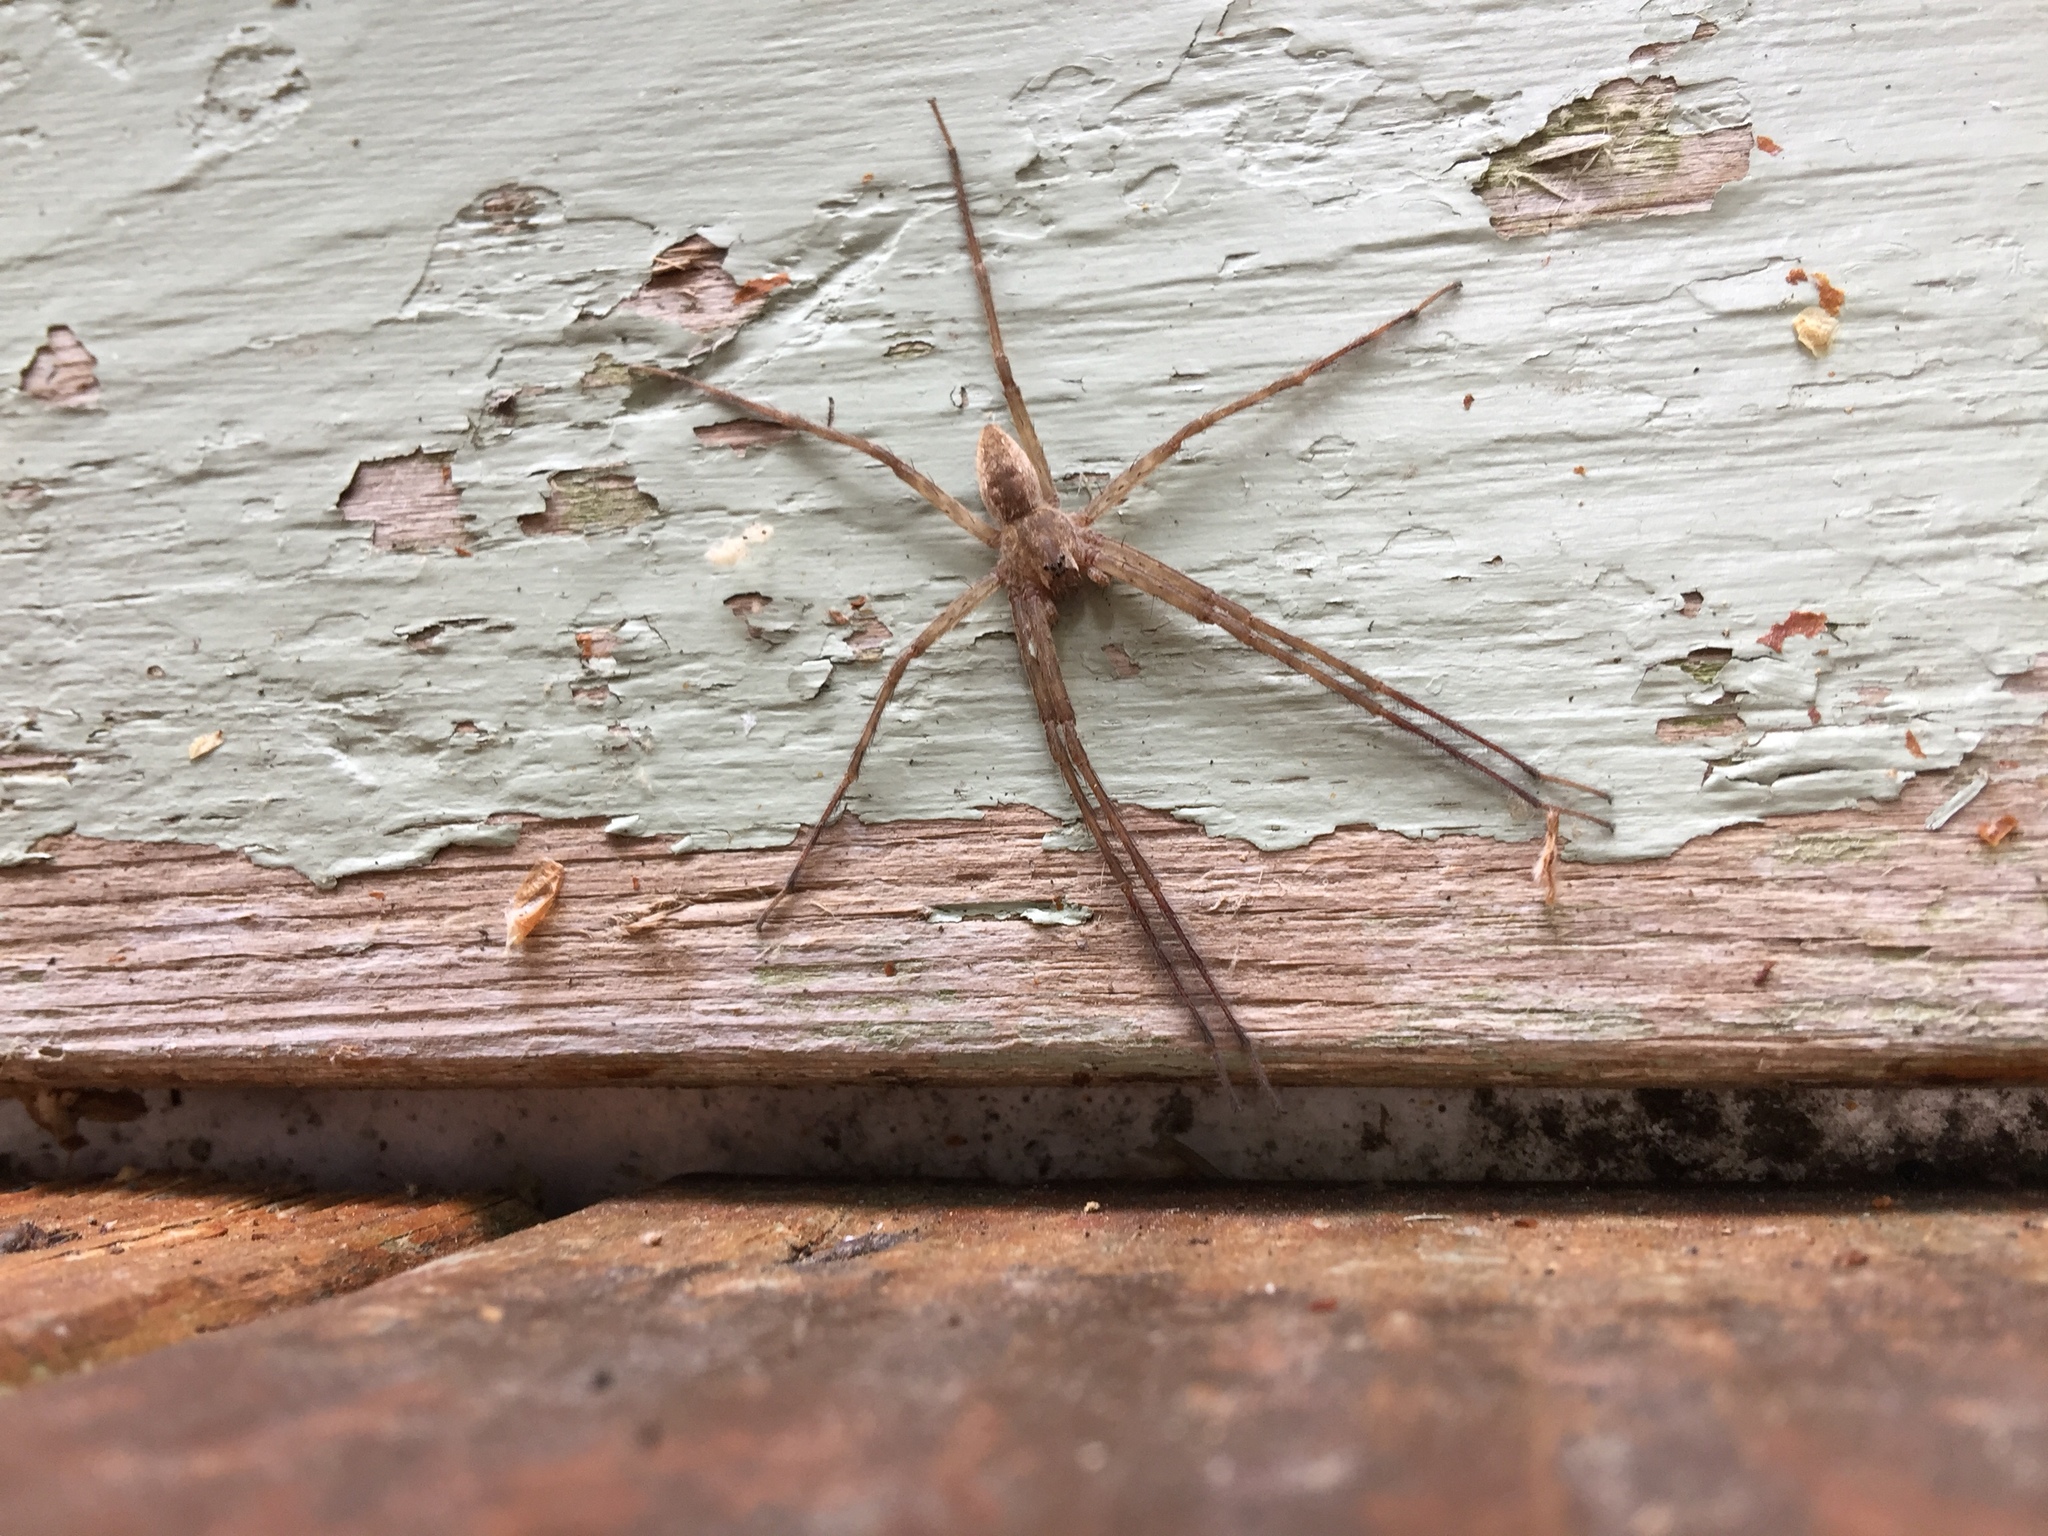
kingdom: Animalia
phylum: Arthropoda
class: Arachnida
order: Araneae
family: Pisauridae
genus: Pisaurina
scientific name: Pisaurina mira
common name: American nursery web spider
